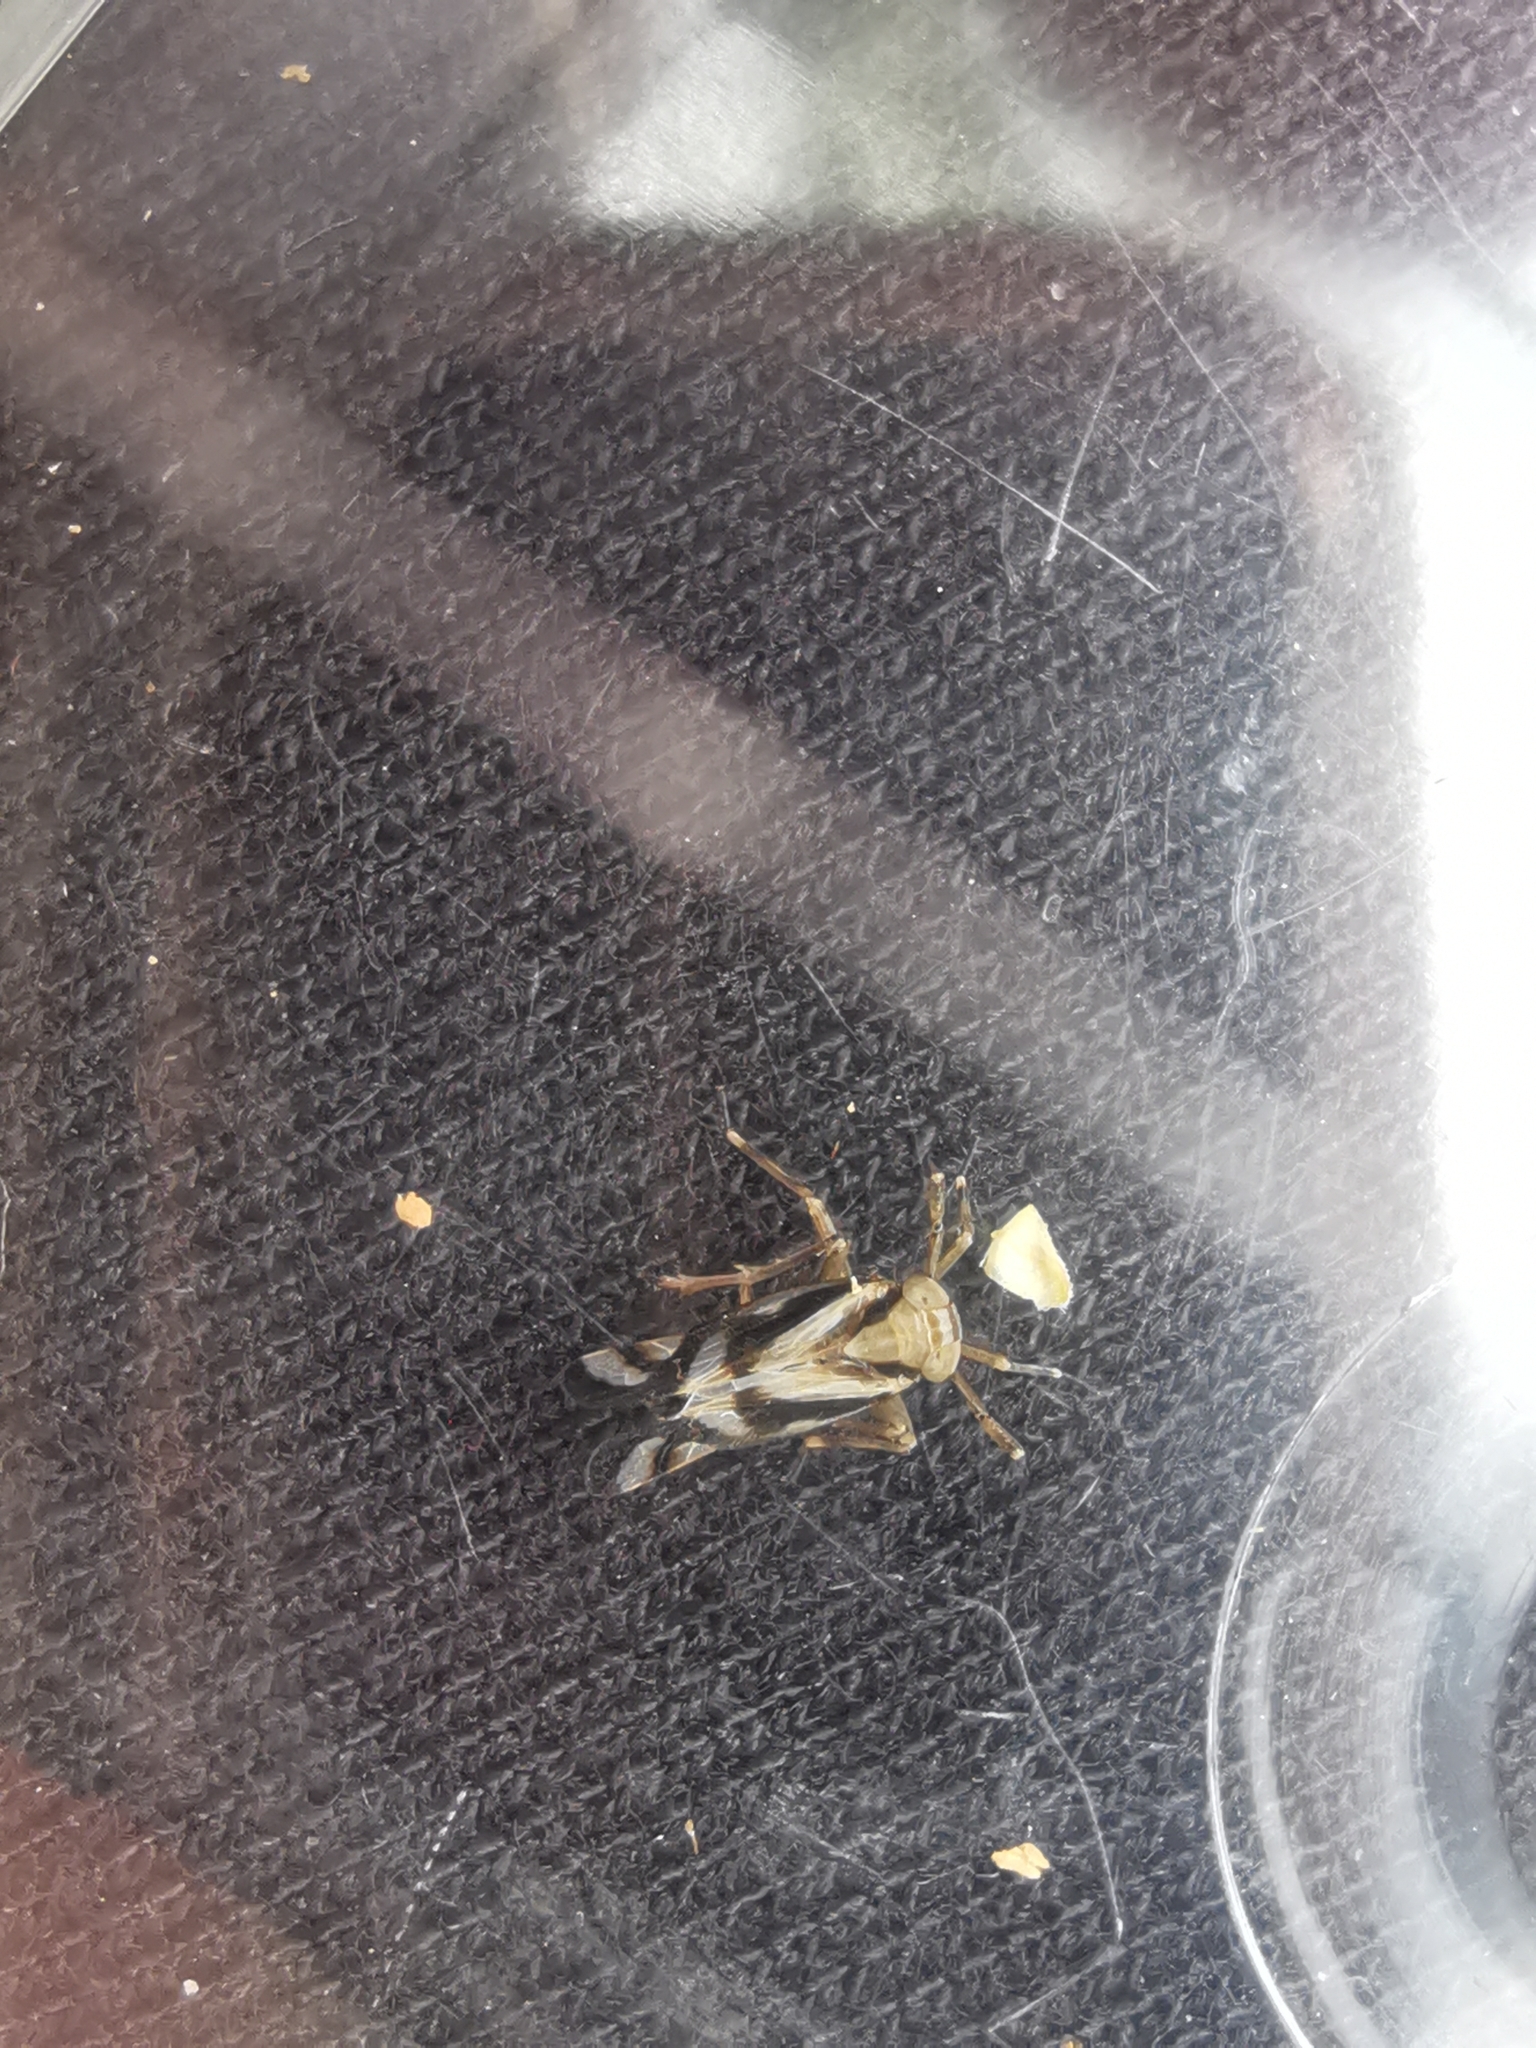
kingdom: Animalia
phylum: Arthropoda
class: Insecta
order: Hemiptera
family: Delphacidae
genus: Delphax
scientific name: Delphax crassicornis
